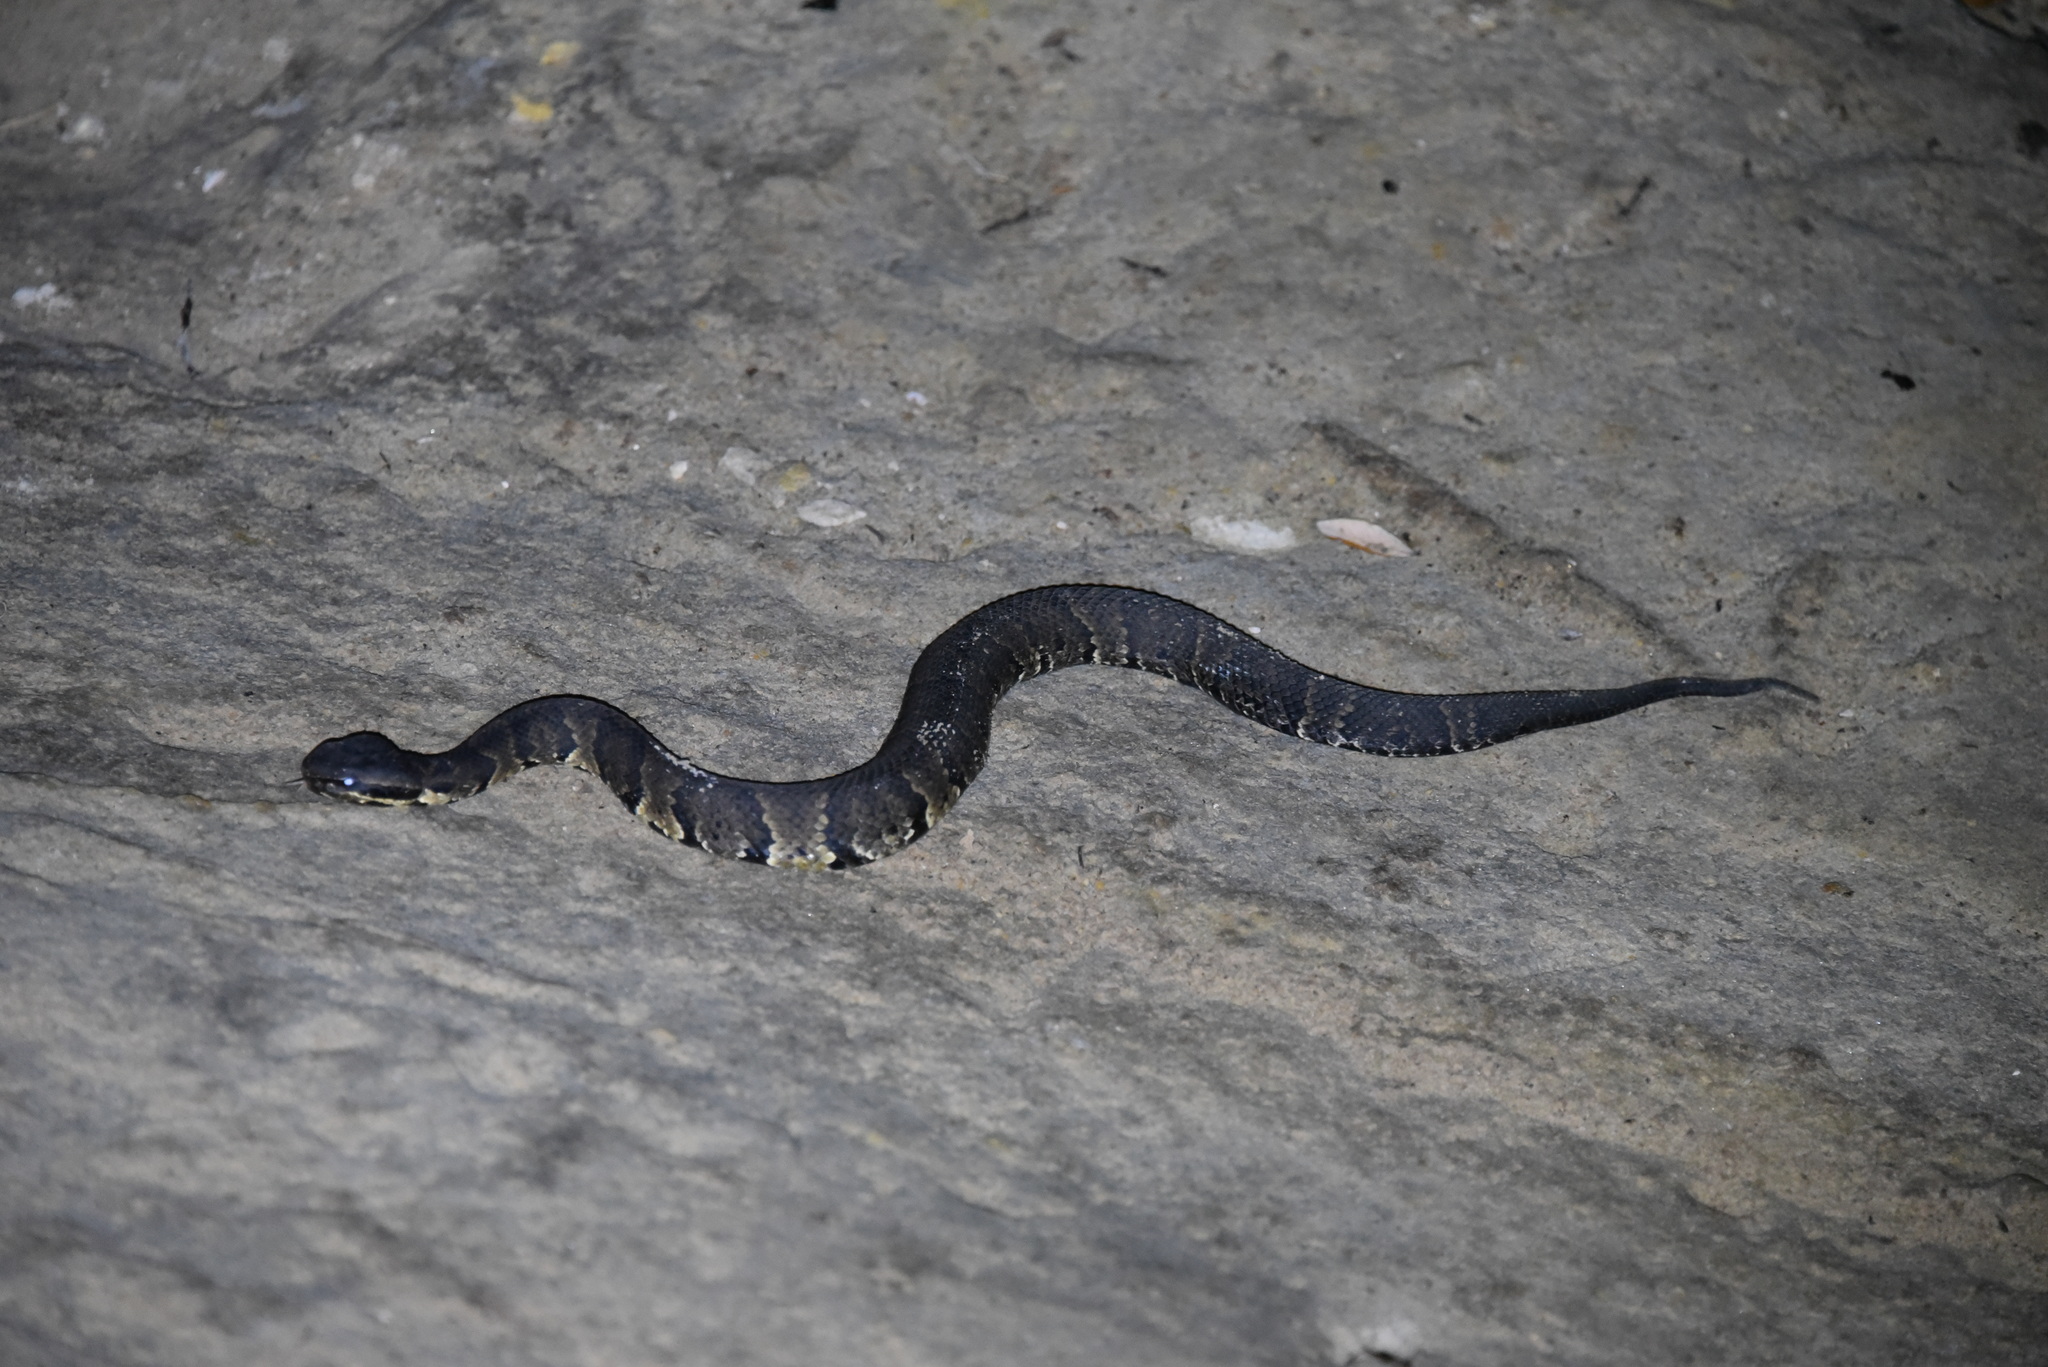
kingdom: Animalia
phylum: Chordata
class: Squamata
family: Viperidae
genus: Agkistrodon
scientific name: Agkistrodon piscivorus
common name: Cottonmouth
